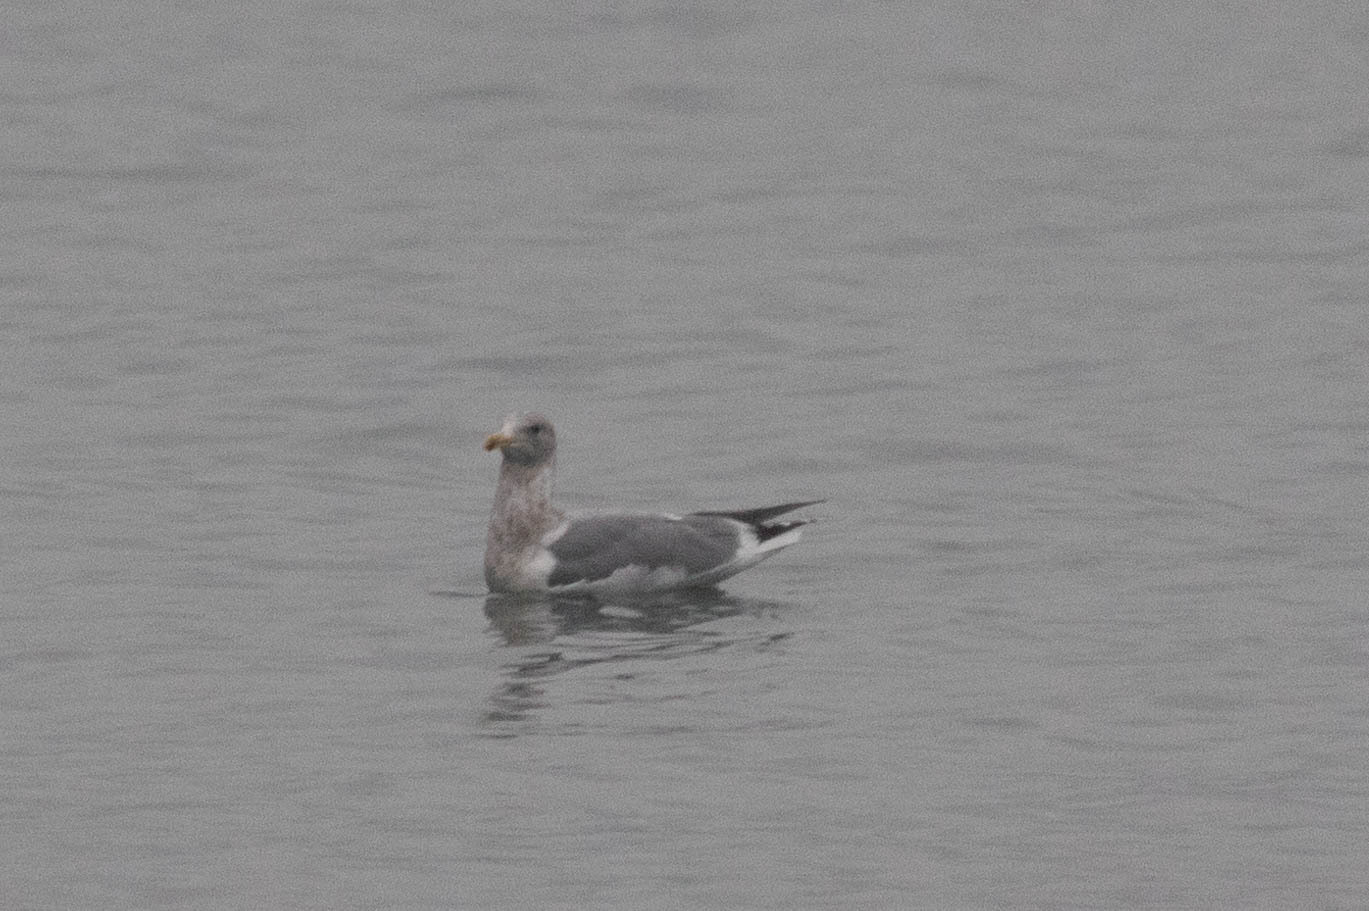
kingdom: Animalia
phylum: Chordata
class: Aves
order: Charadriiformes
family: Laridae
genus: Larus
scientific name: Larus
